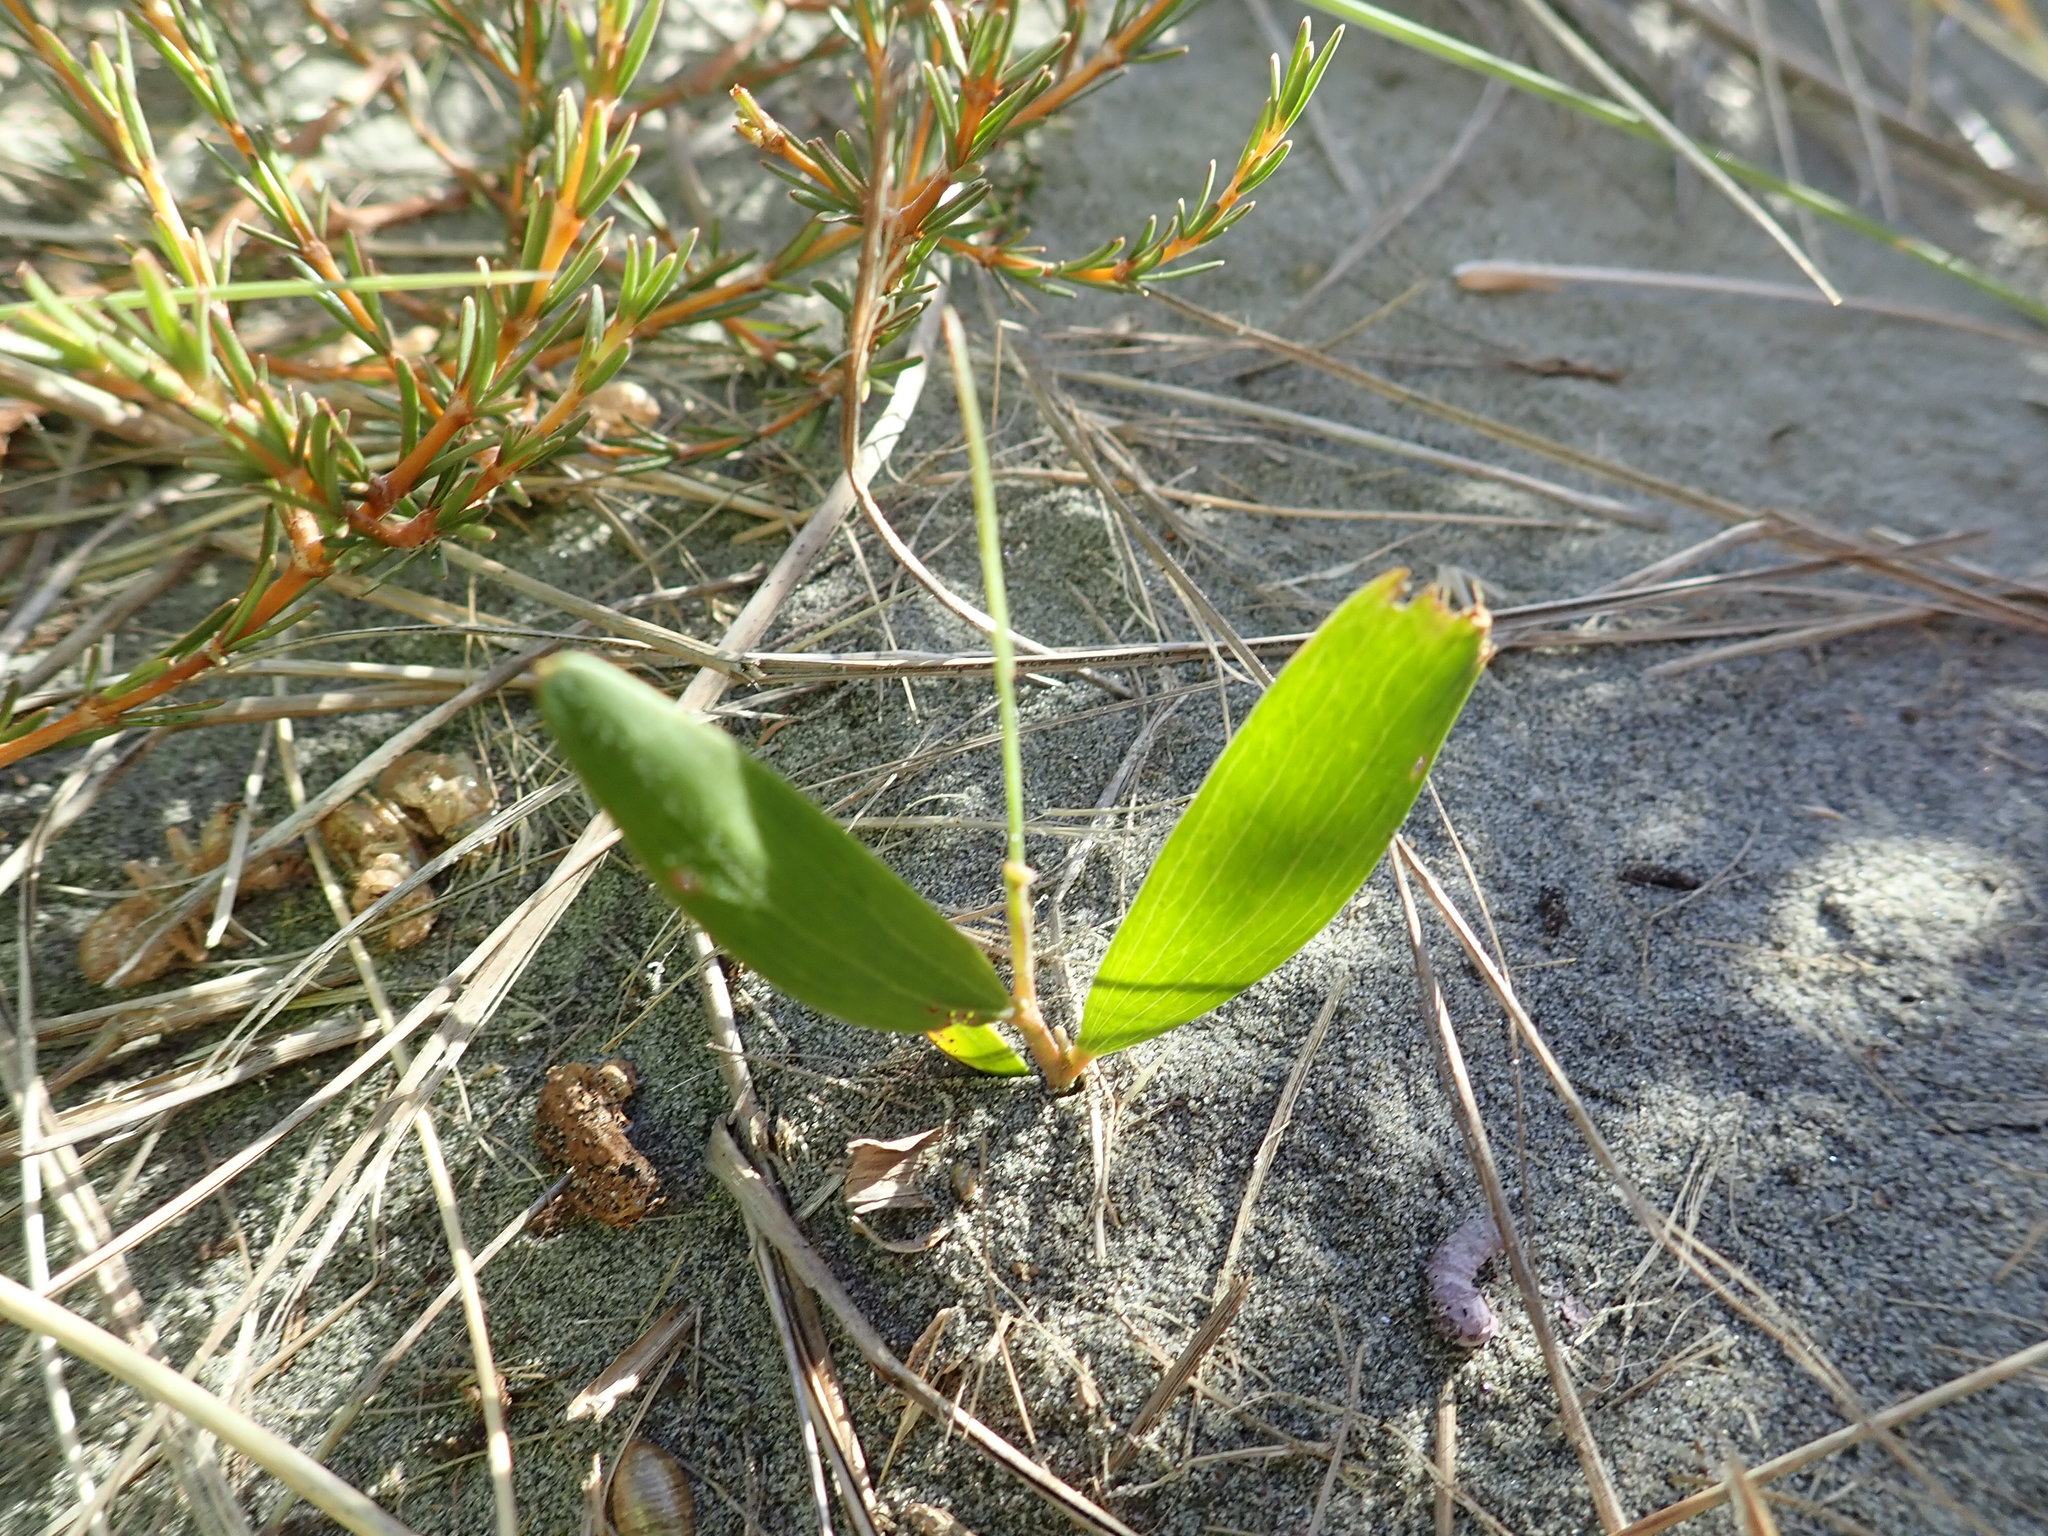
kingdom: Plantae
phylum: Tracheophyta
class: Magnoliopsida
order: Fabales
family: Fabaceae
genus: Acacia
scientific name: Acacia longifolia
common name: Sydney golden wattle
